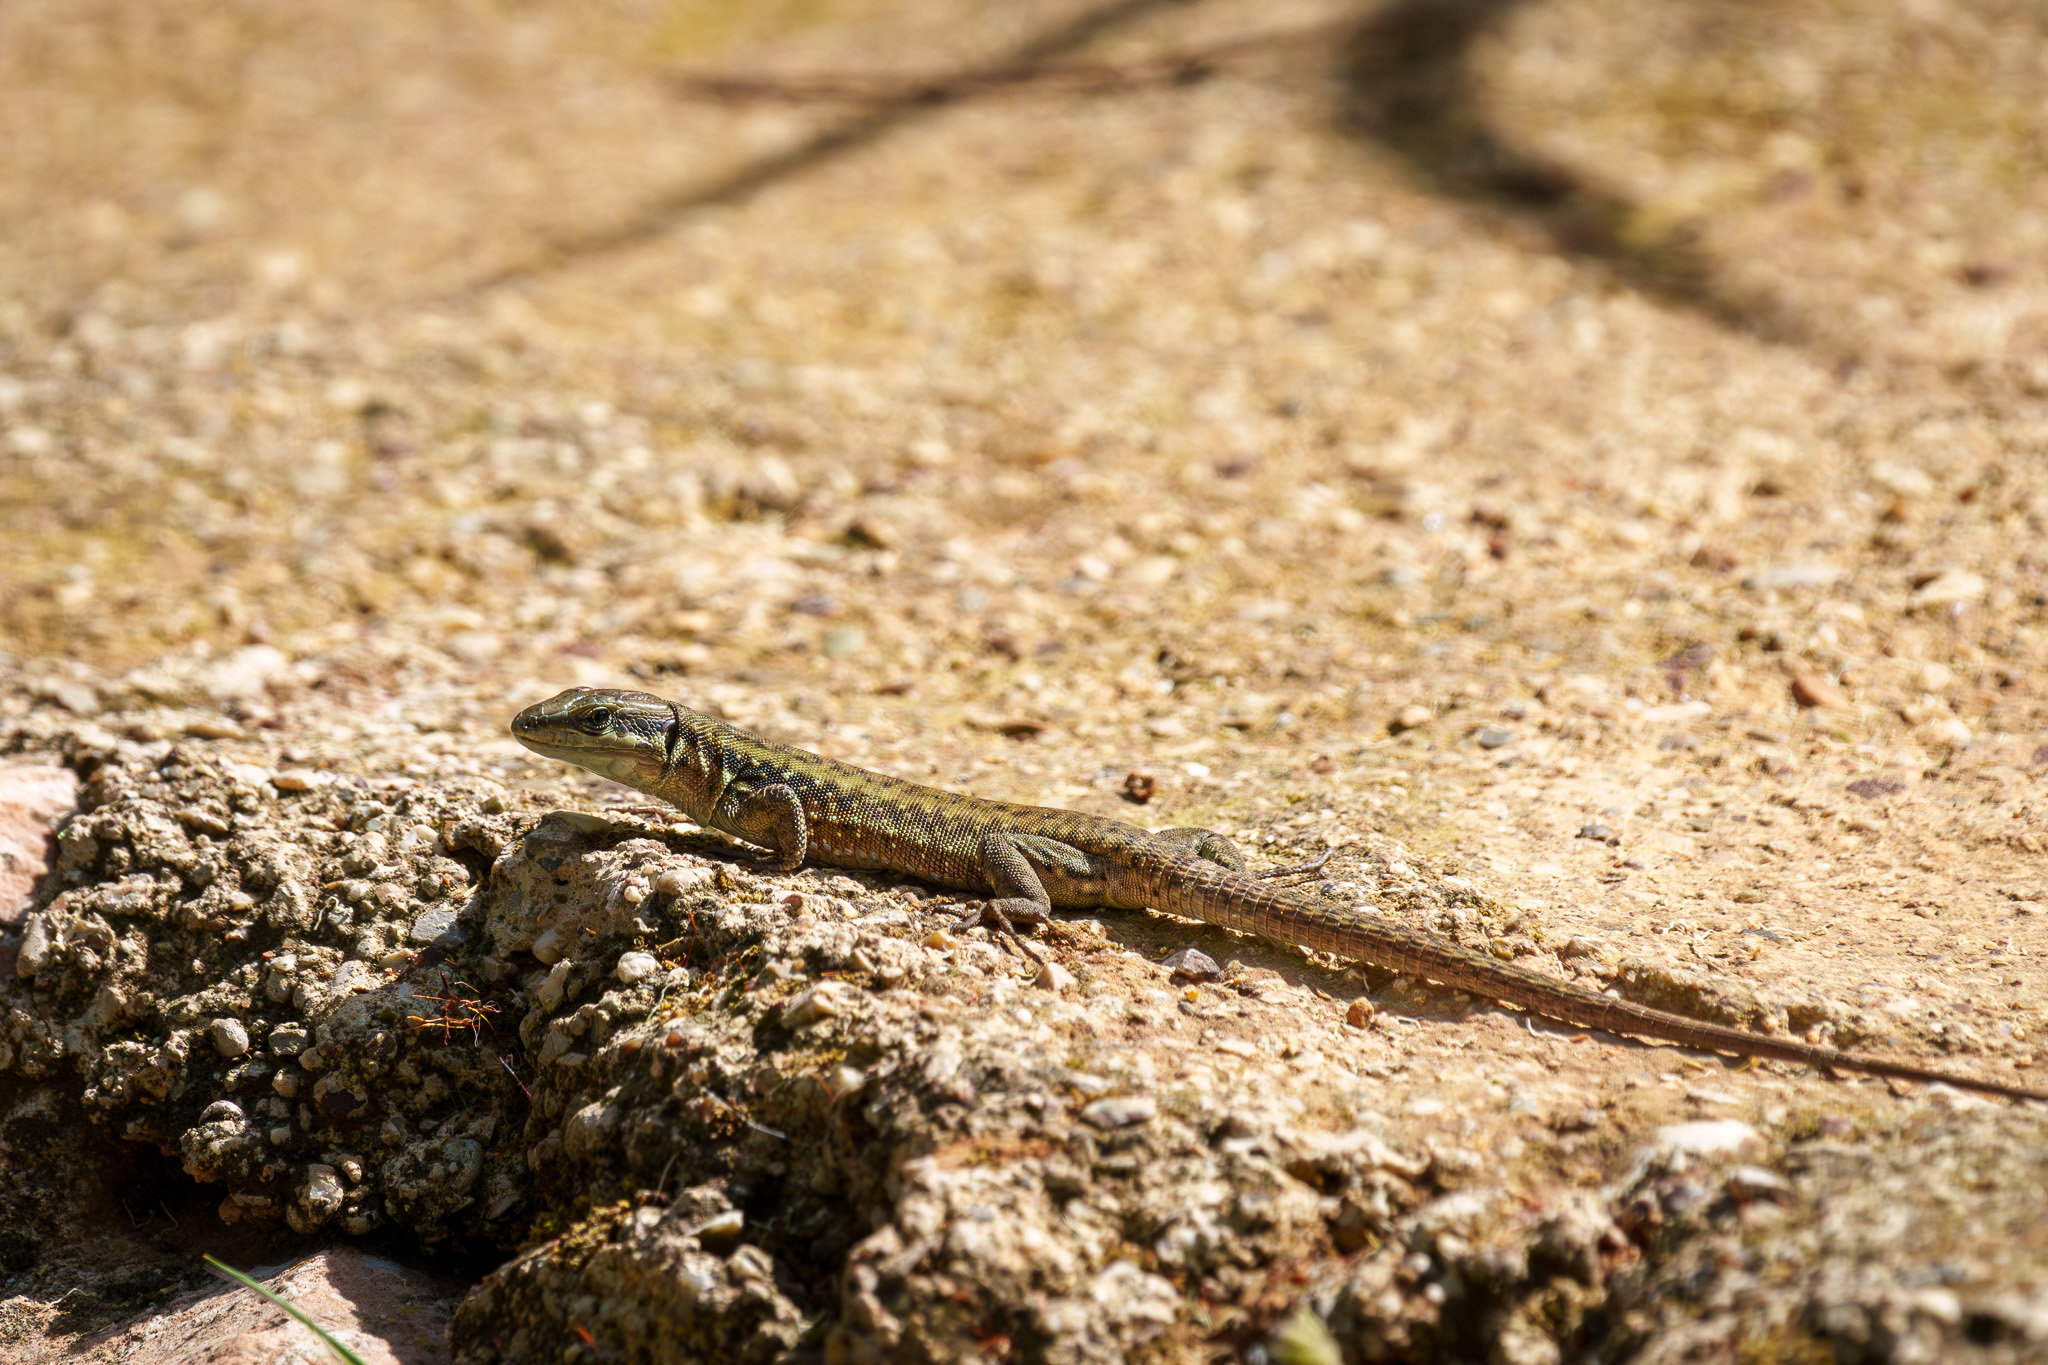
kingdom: Animalia
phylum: Chordata
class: Squamata
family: Lacertidae
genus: Phoenicolacerta
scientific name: Phoenicolacerta laevis
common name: Lebanon lizard
